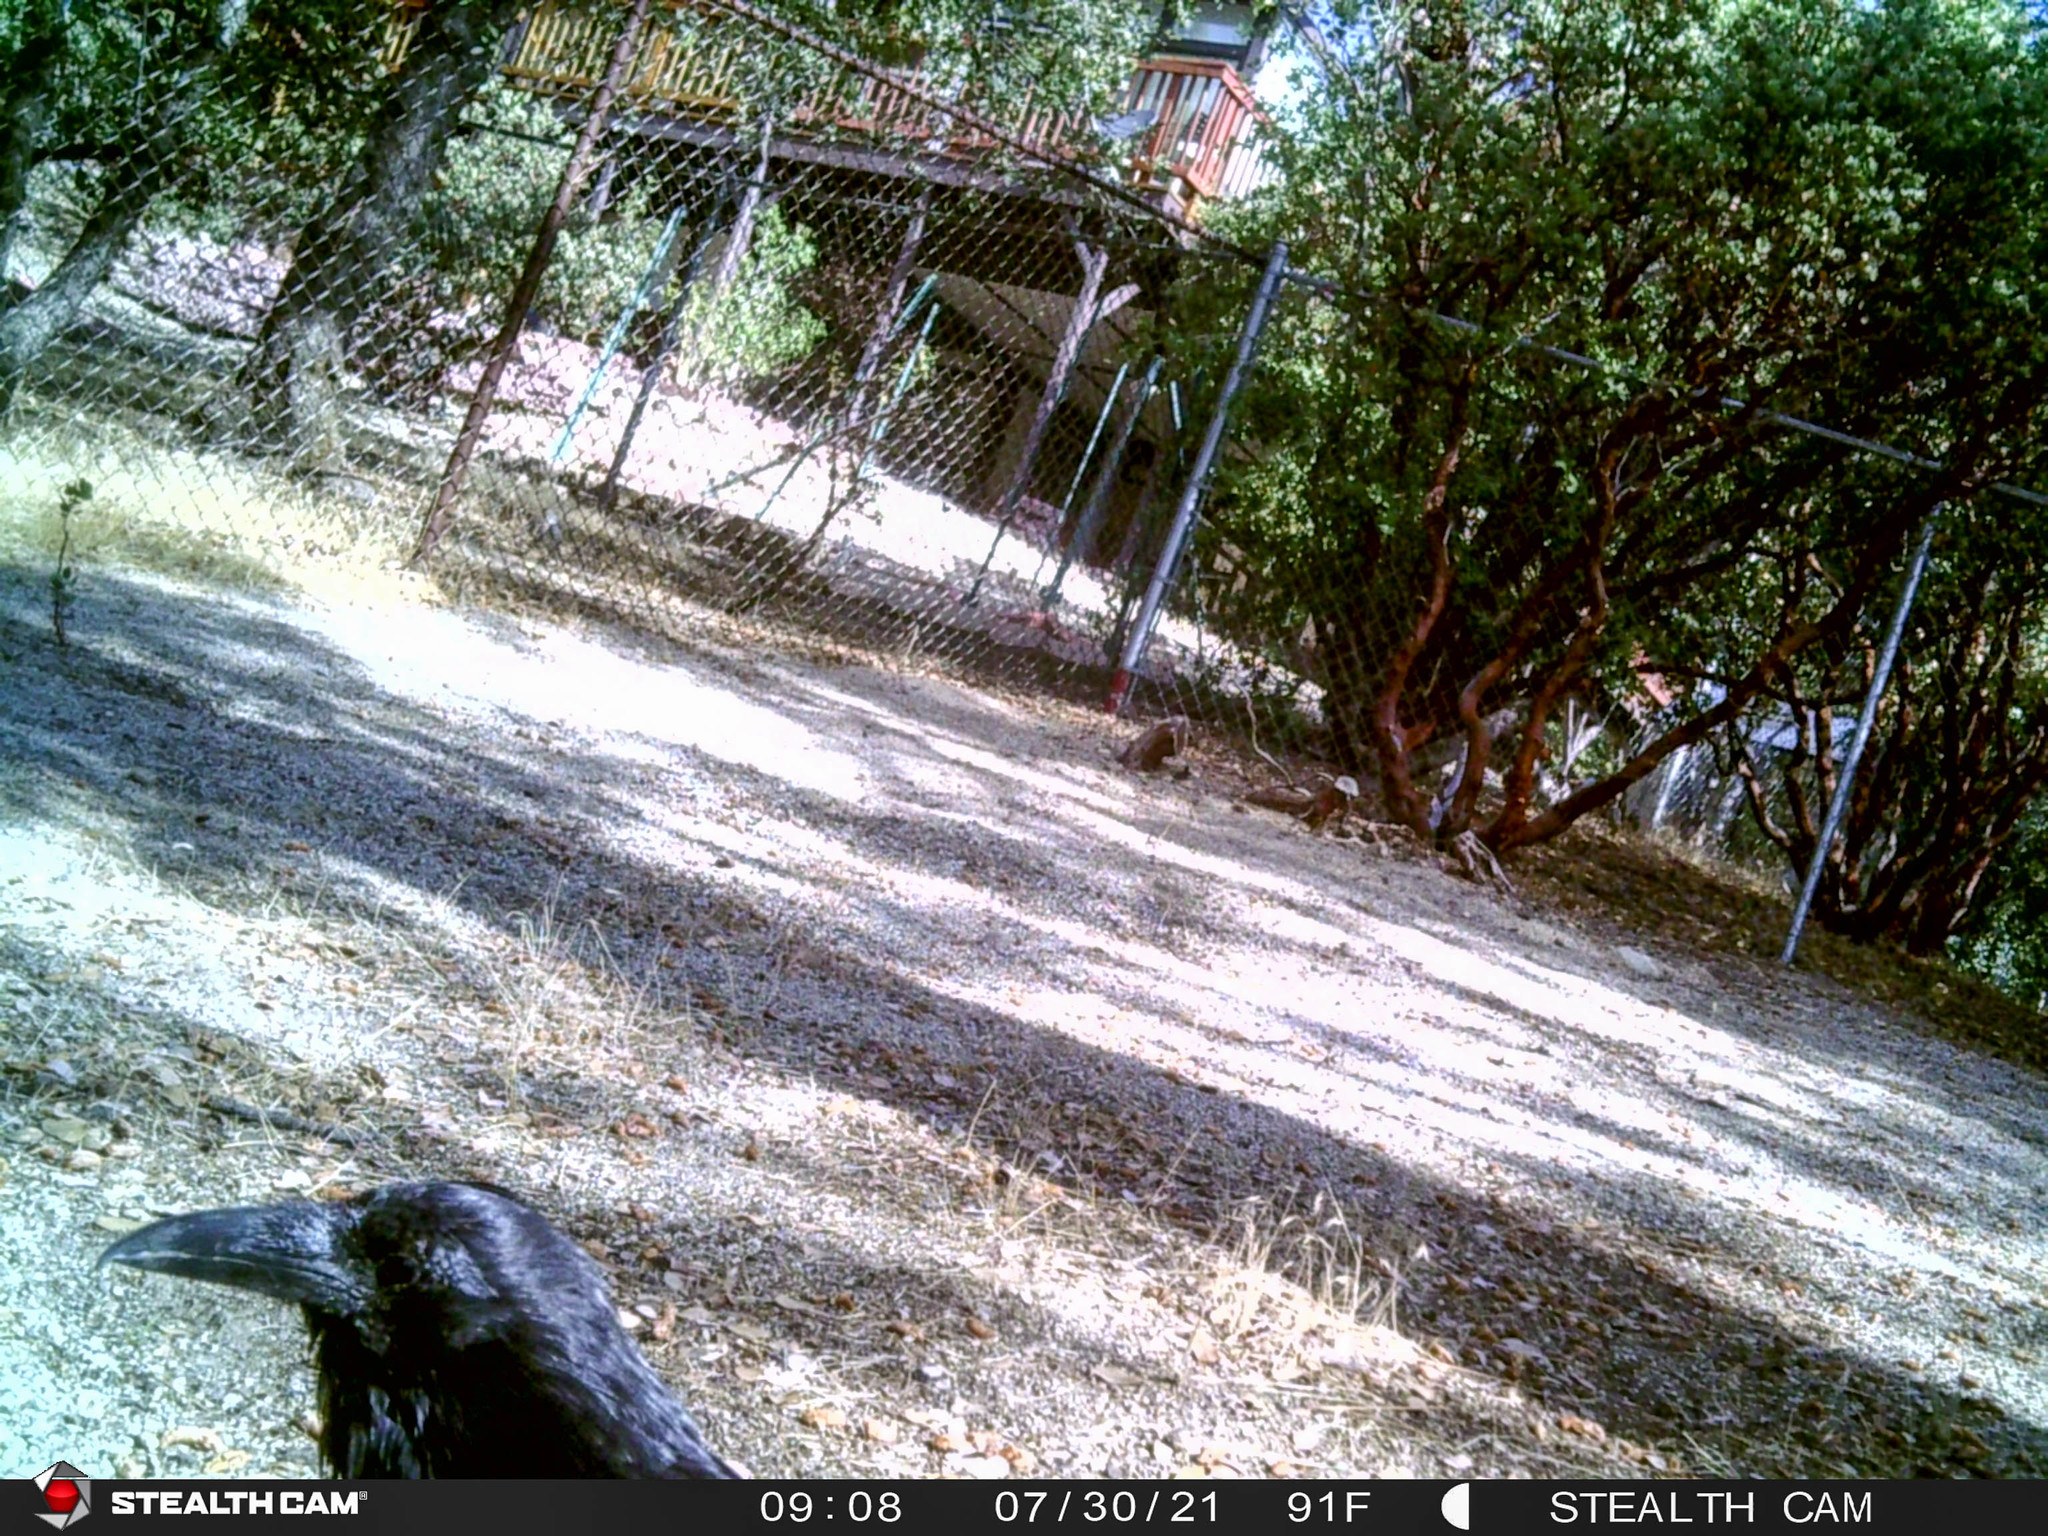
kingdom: Animalia
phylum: Chordata
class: Aves
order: Passeriformes
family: Corvidae
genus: Corvus
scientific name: Corvus corax
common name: Common raven
